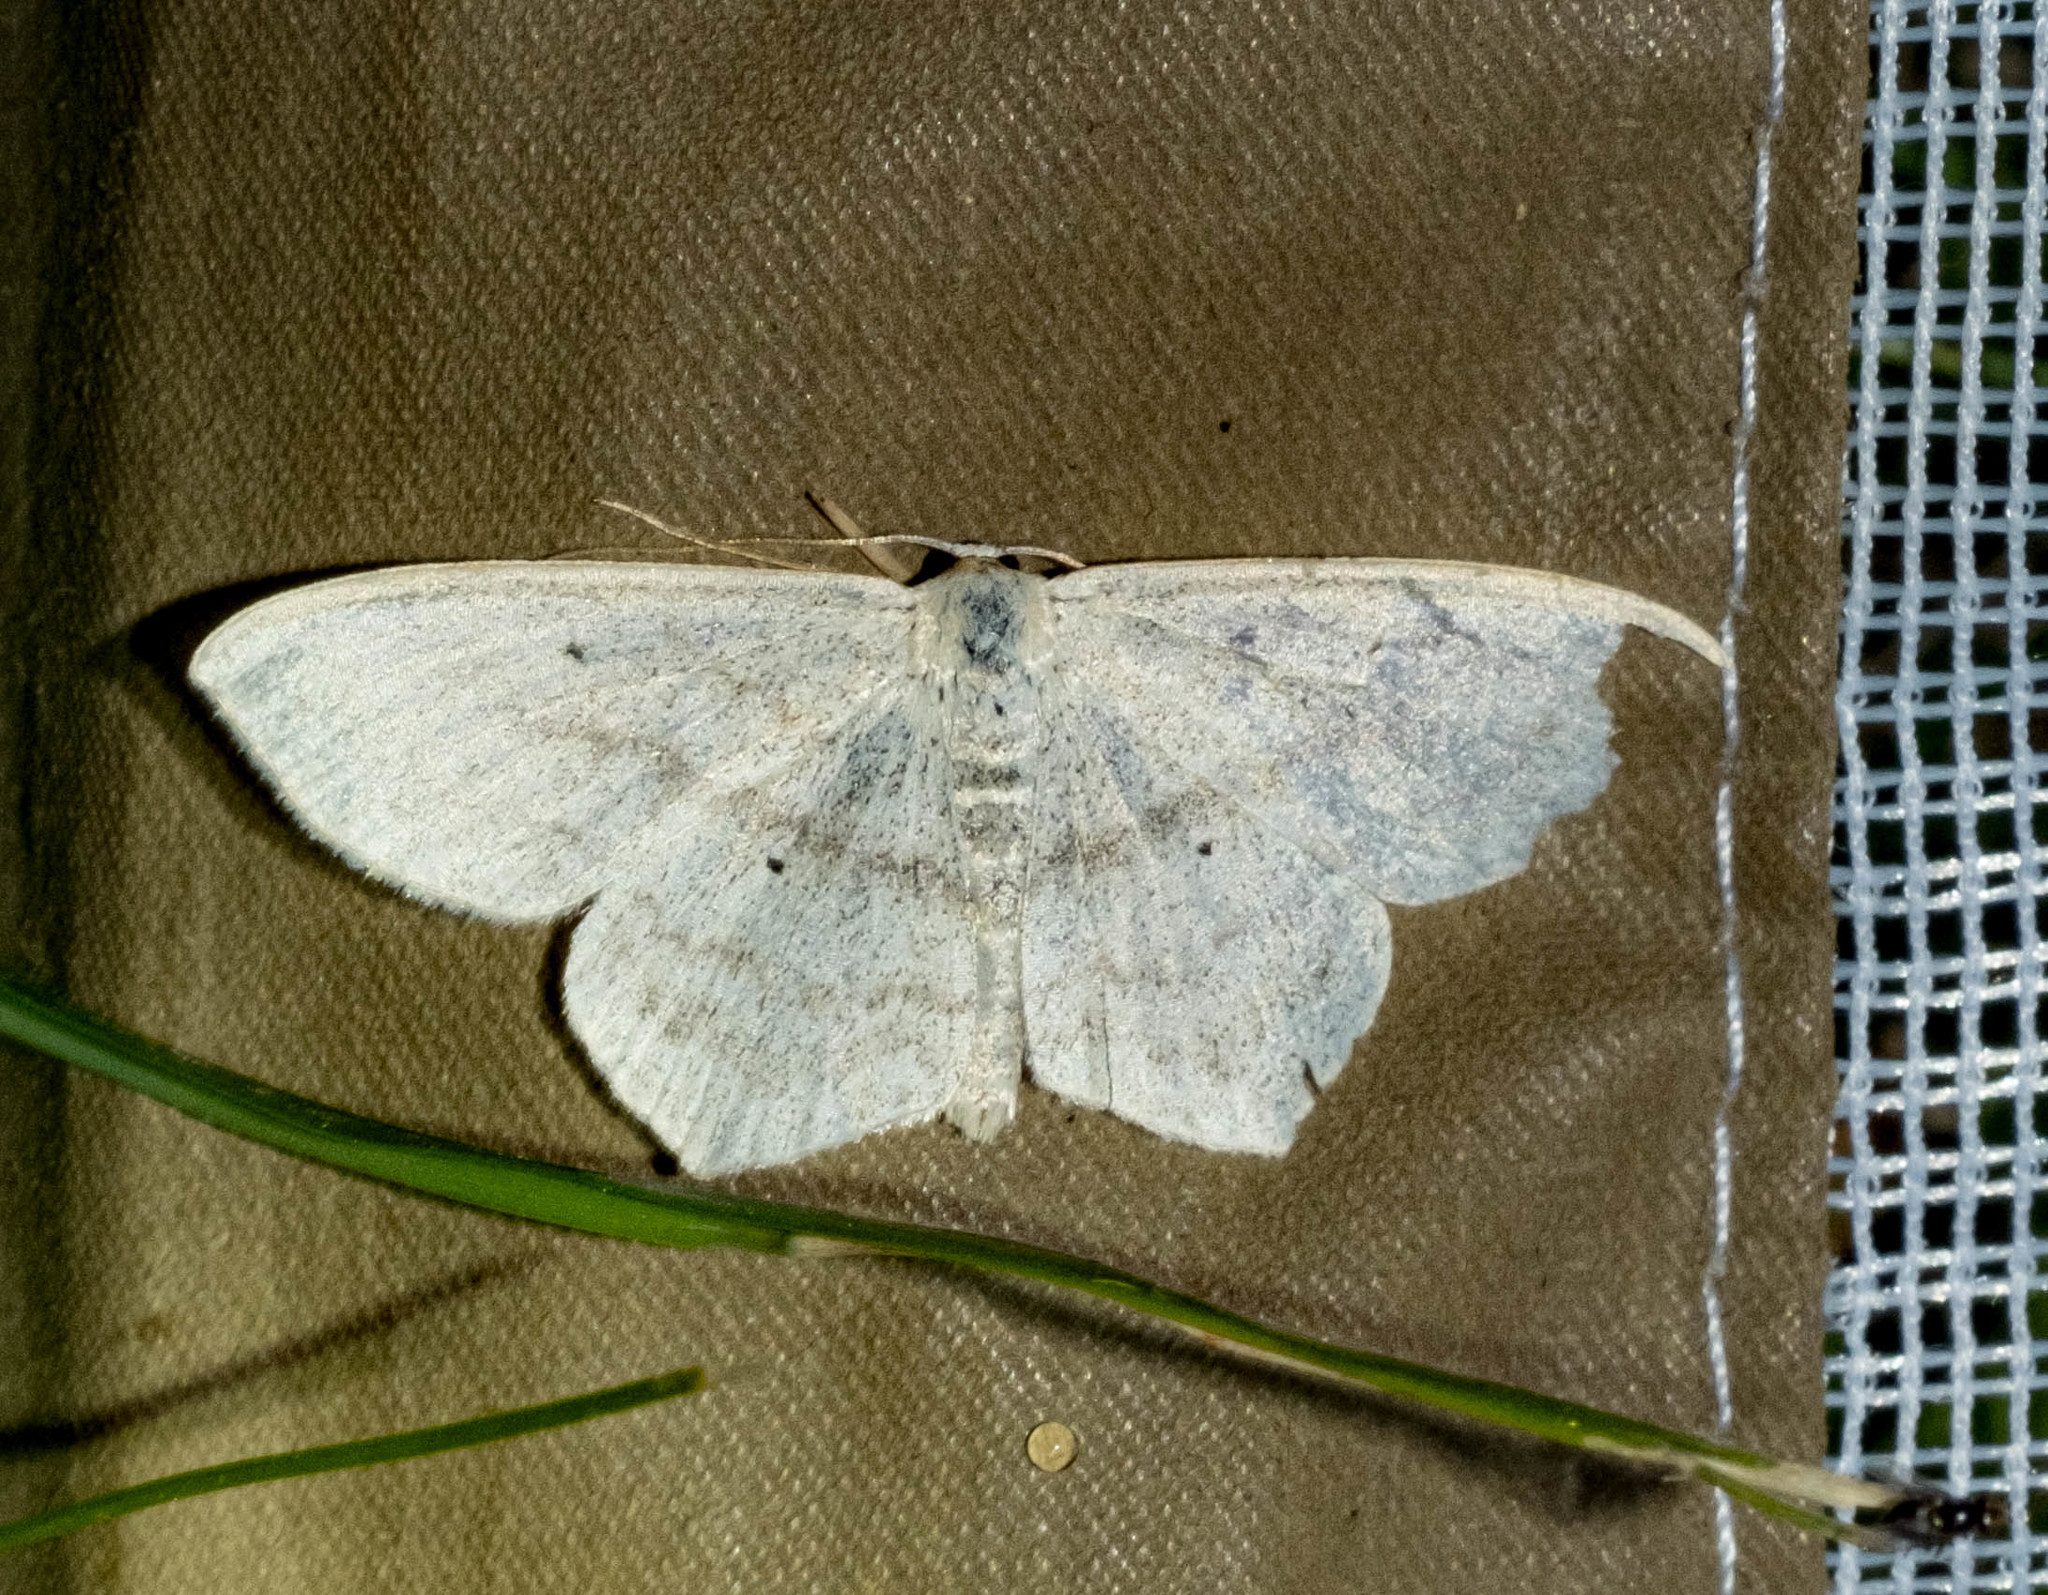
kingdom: Animalia
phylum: Arthropoda
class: Insecta
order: Lepidoptera
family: Geometridae
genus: Scopula
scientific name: Scopula nigropunctata
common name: Sub-angled wave
